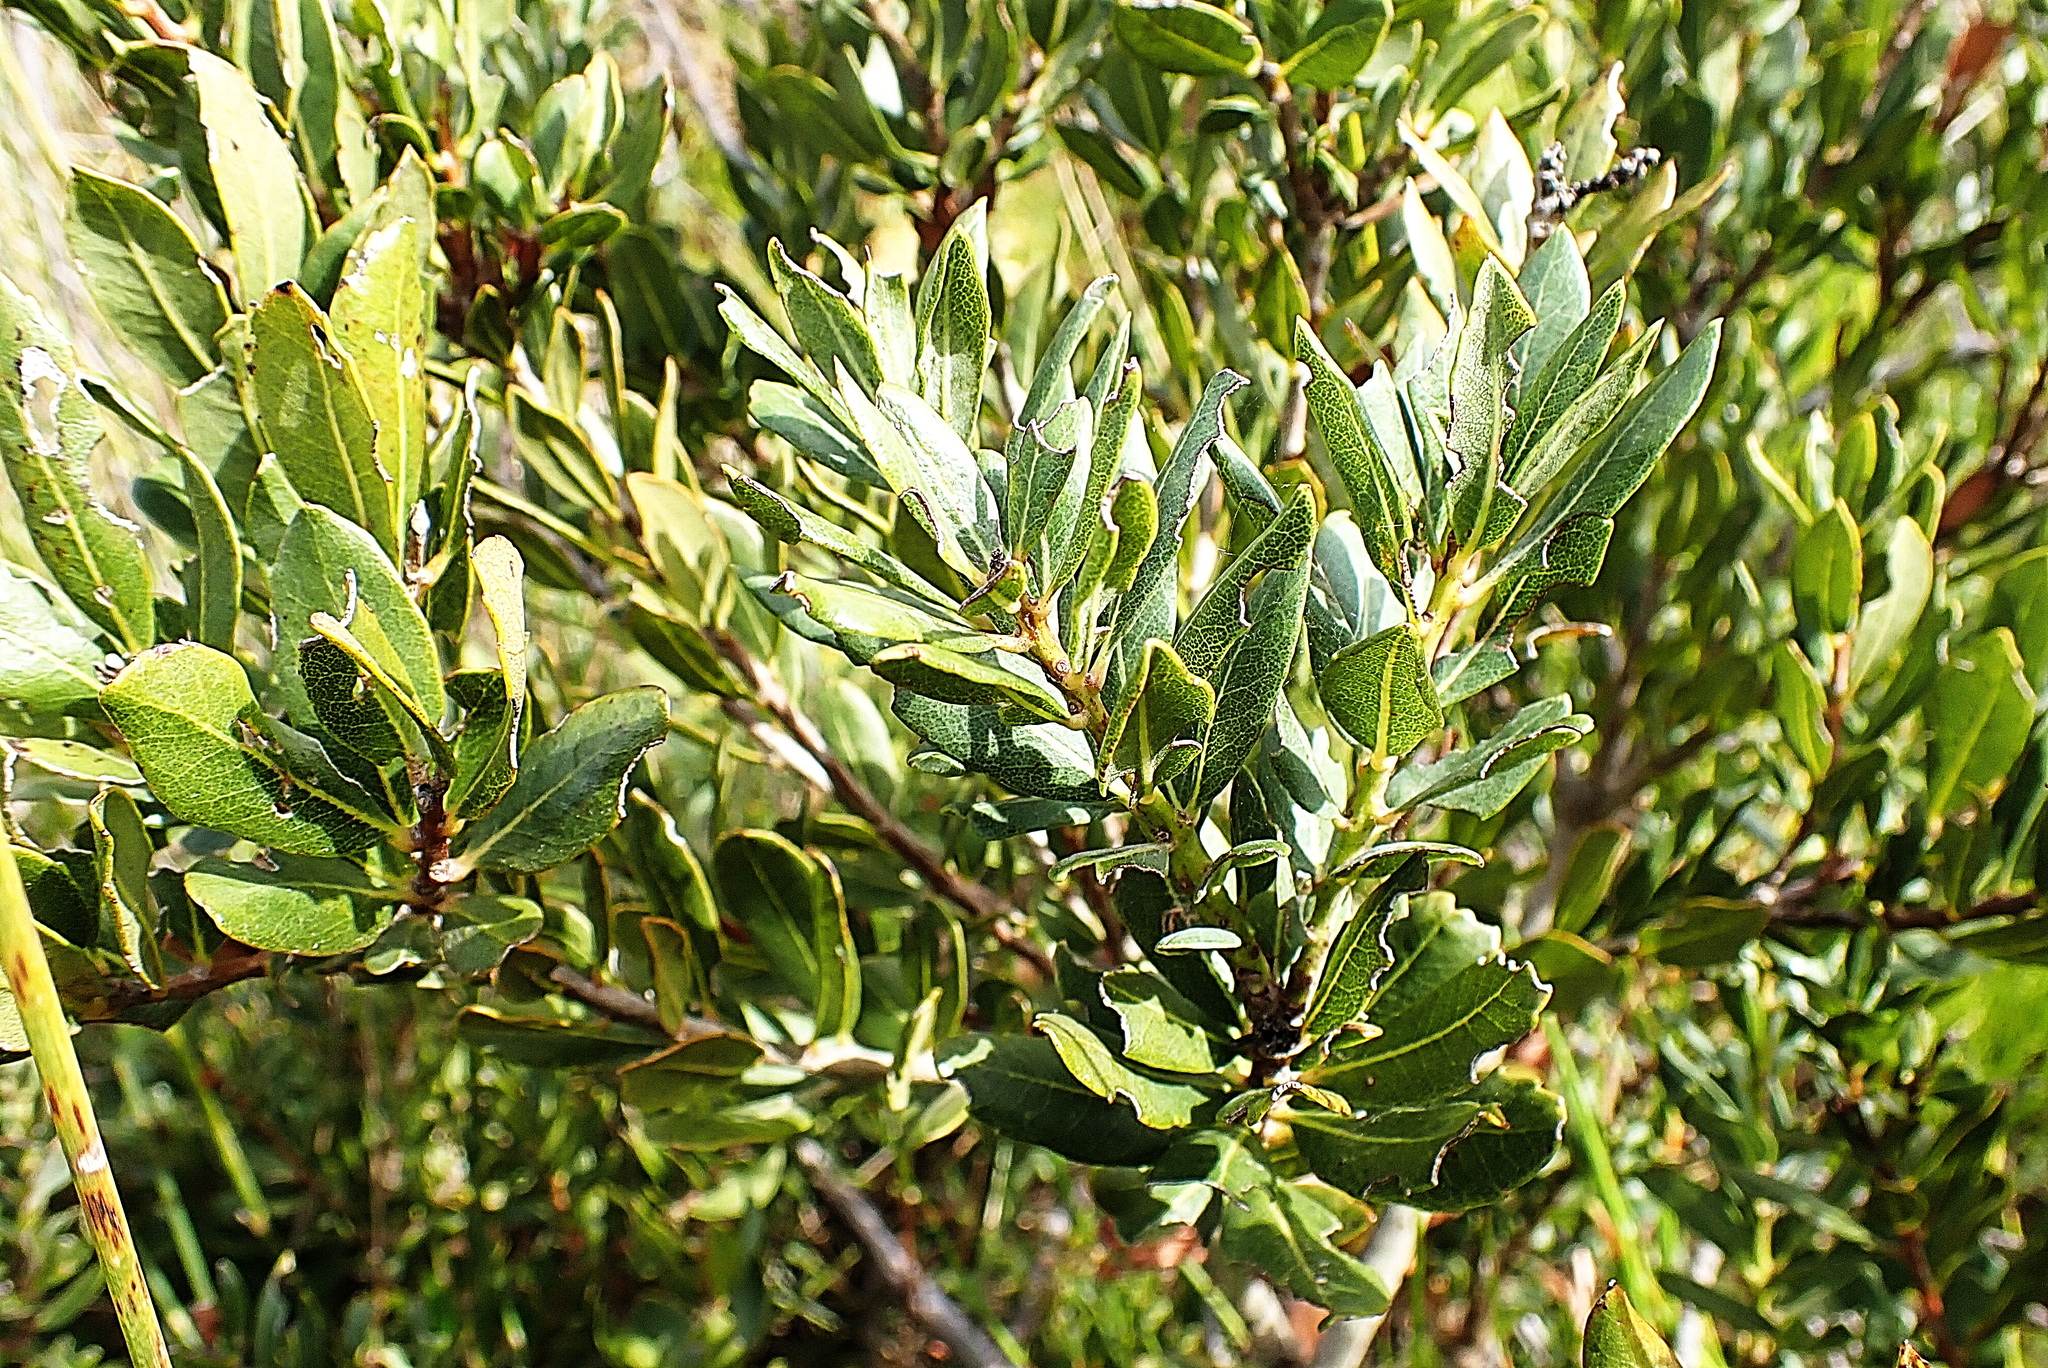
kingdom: Plantae
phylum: Tracheophyta
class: Magnoliopsida
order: Fagales
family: Myricaceae
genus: Morella
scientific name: Morella humilis
